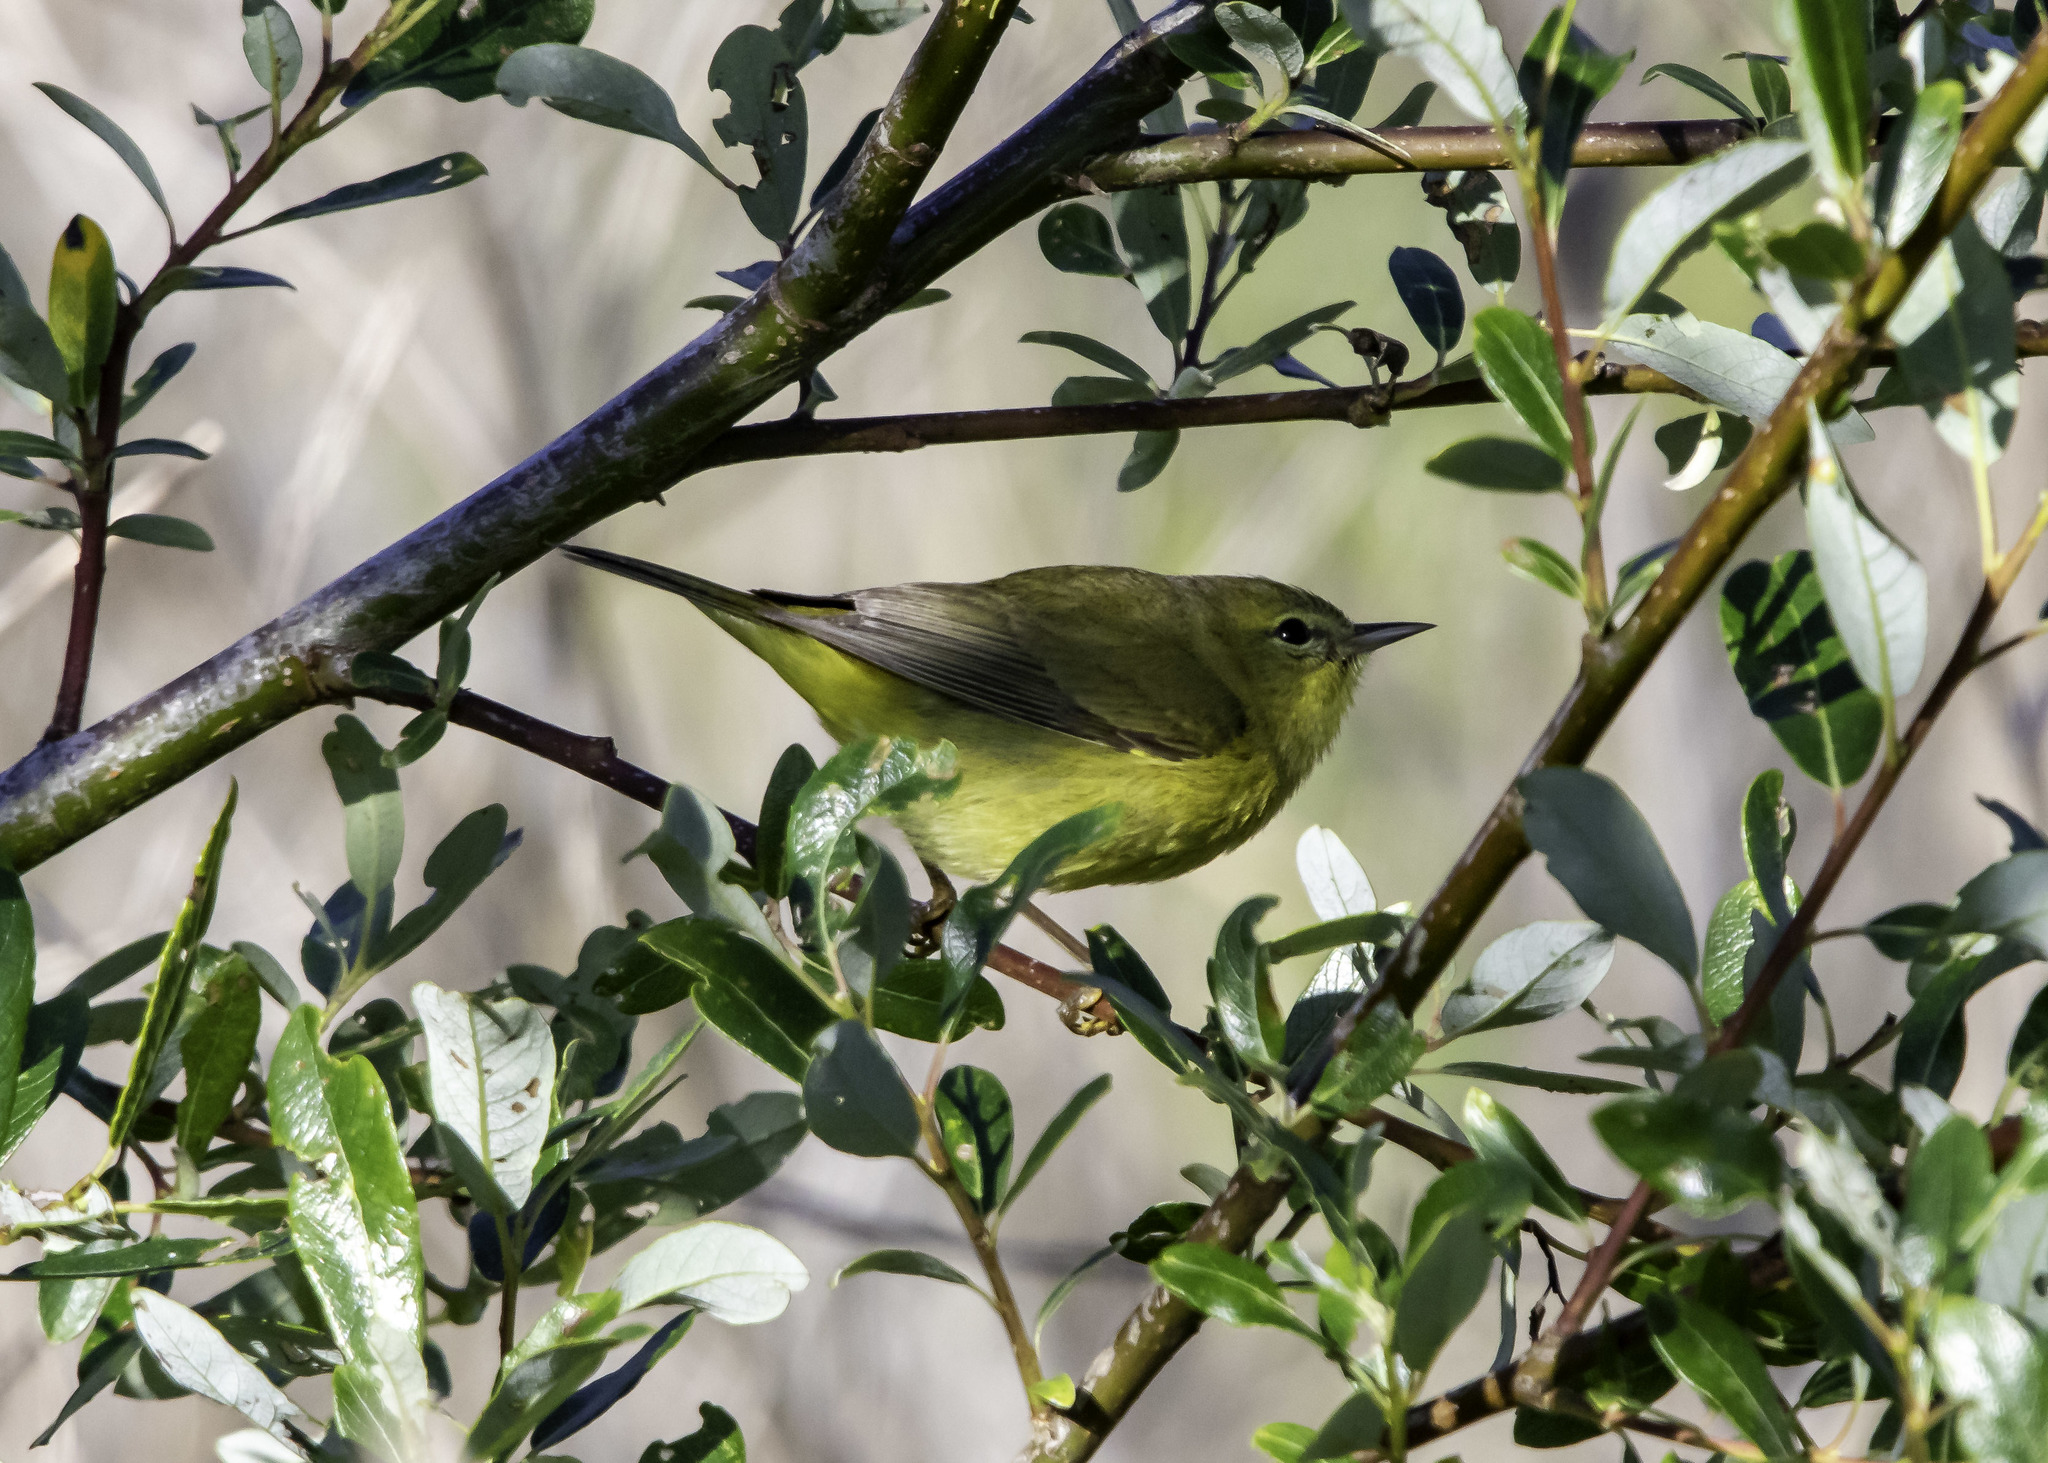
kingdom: Animalia
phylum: Chordata
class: Aves
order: Passeriformes
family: Parulidae
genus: Leiothlypis
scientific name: Leiothlypis celata
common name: Orange-crowned warbler
